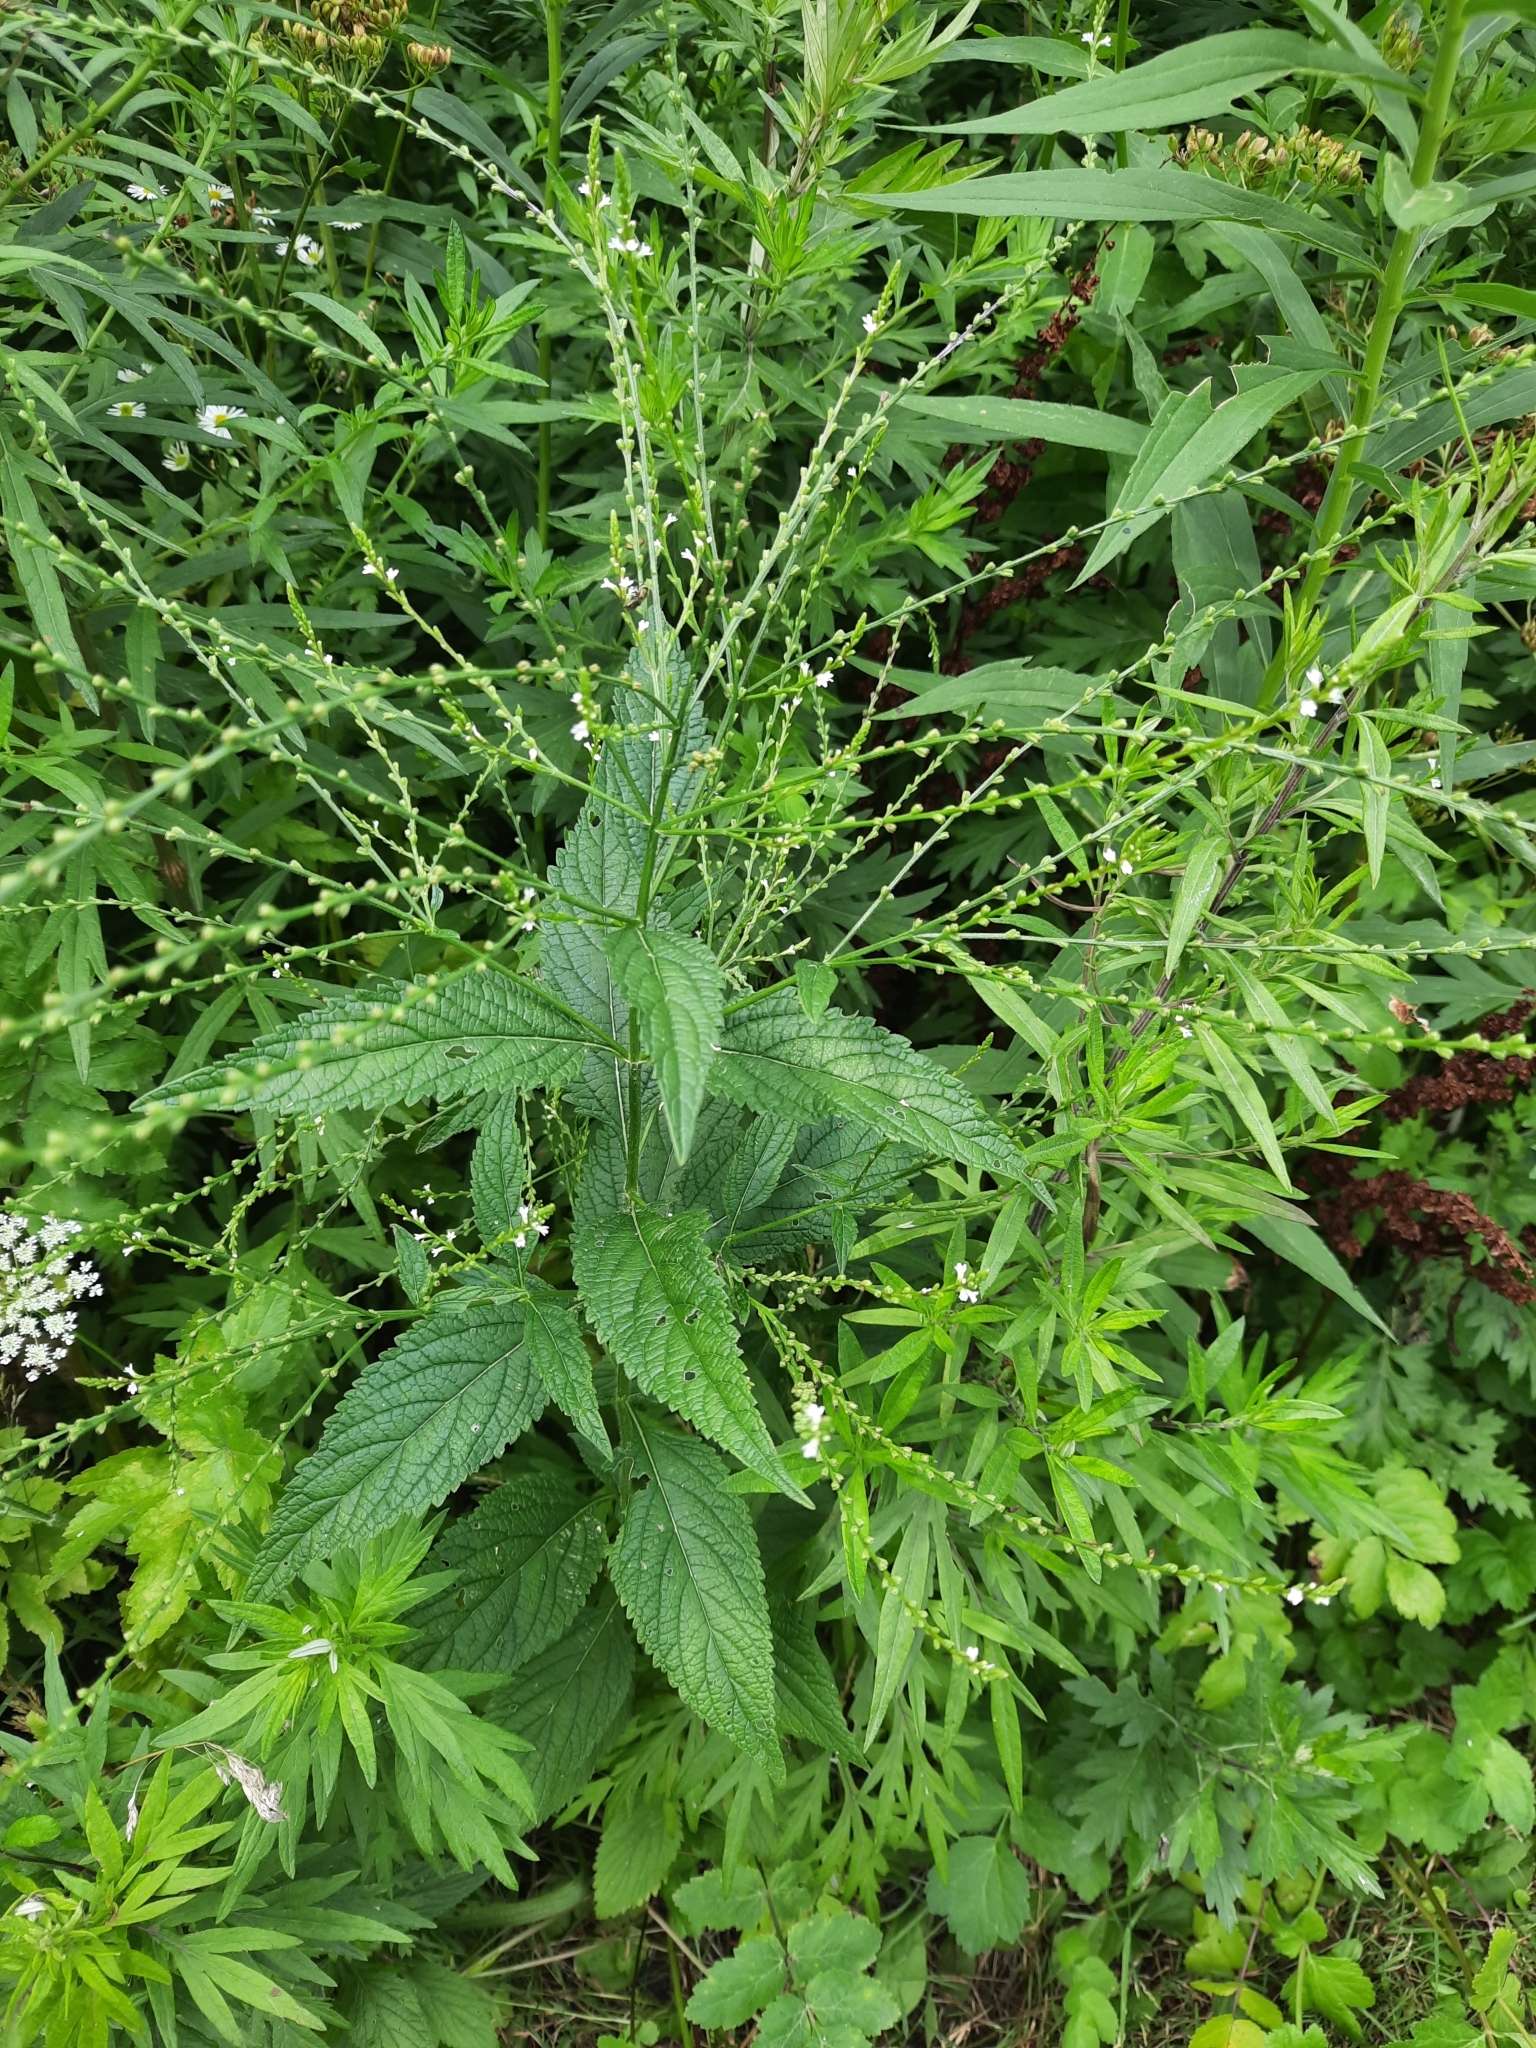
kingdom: Plantae
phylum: Tracheophyta
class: Magnoliopsida
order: Lamiales
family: Verbenaceae
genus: Verbena
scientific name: Verbena urticifolia
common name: Nettle-leaved vervain
